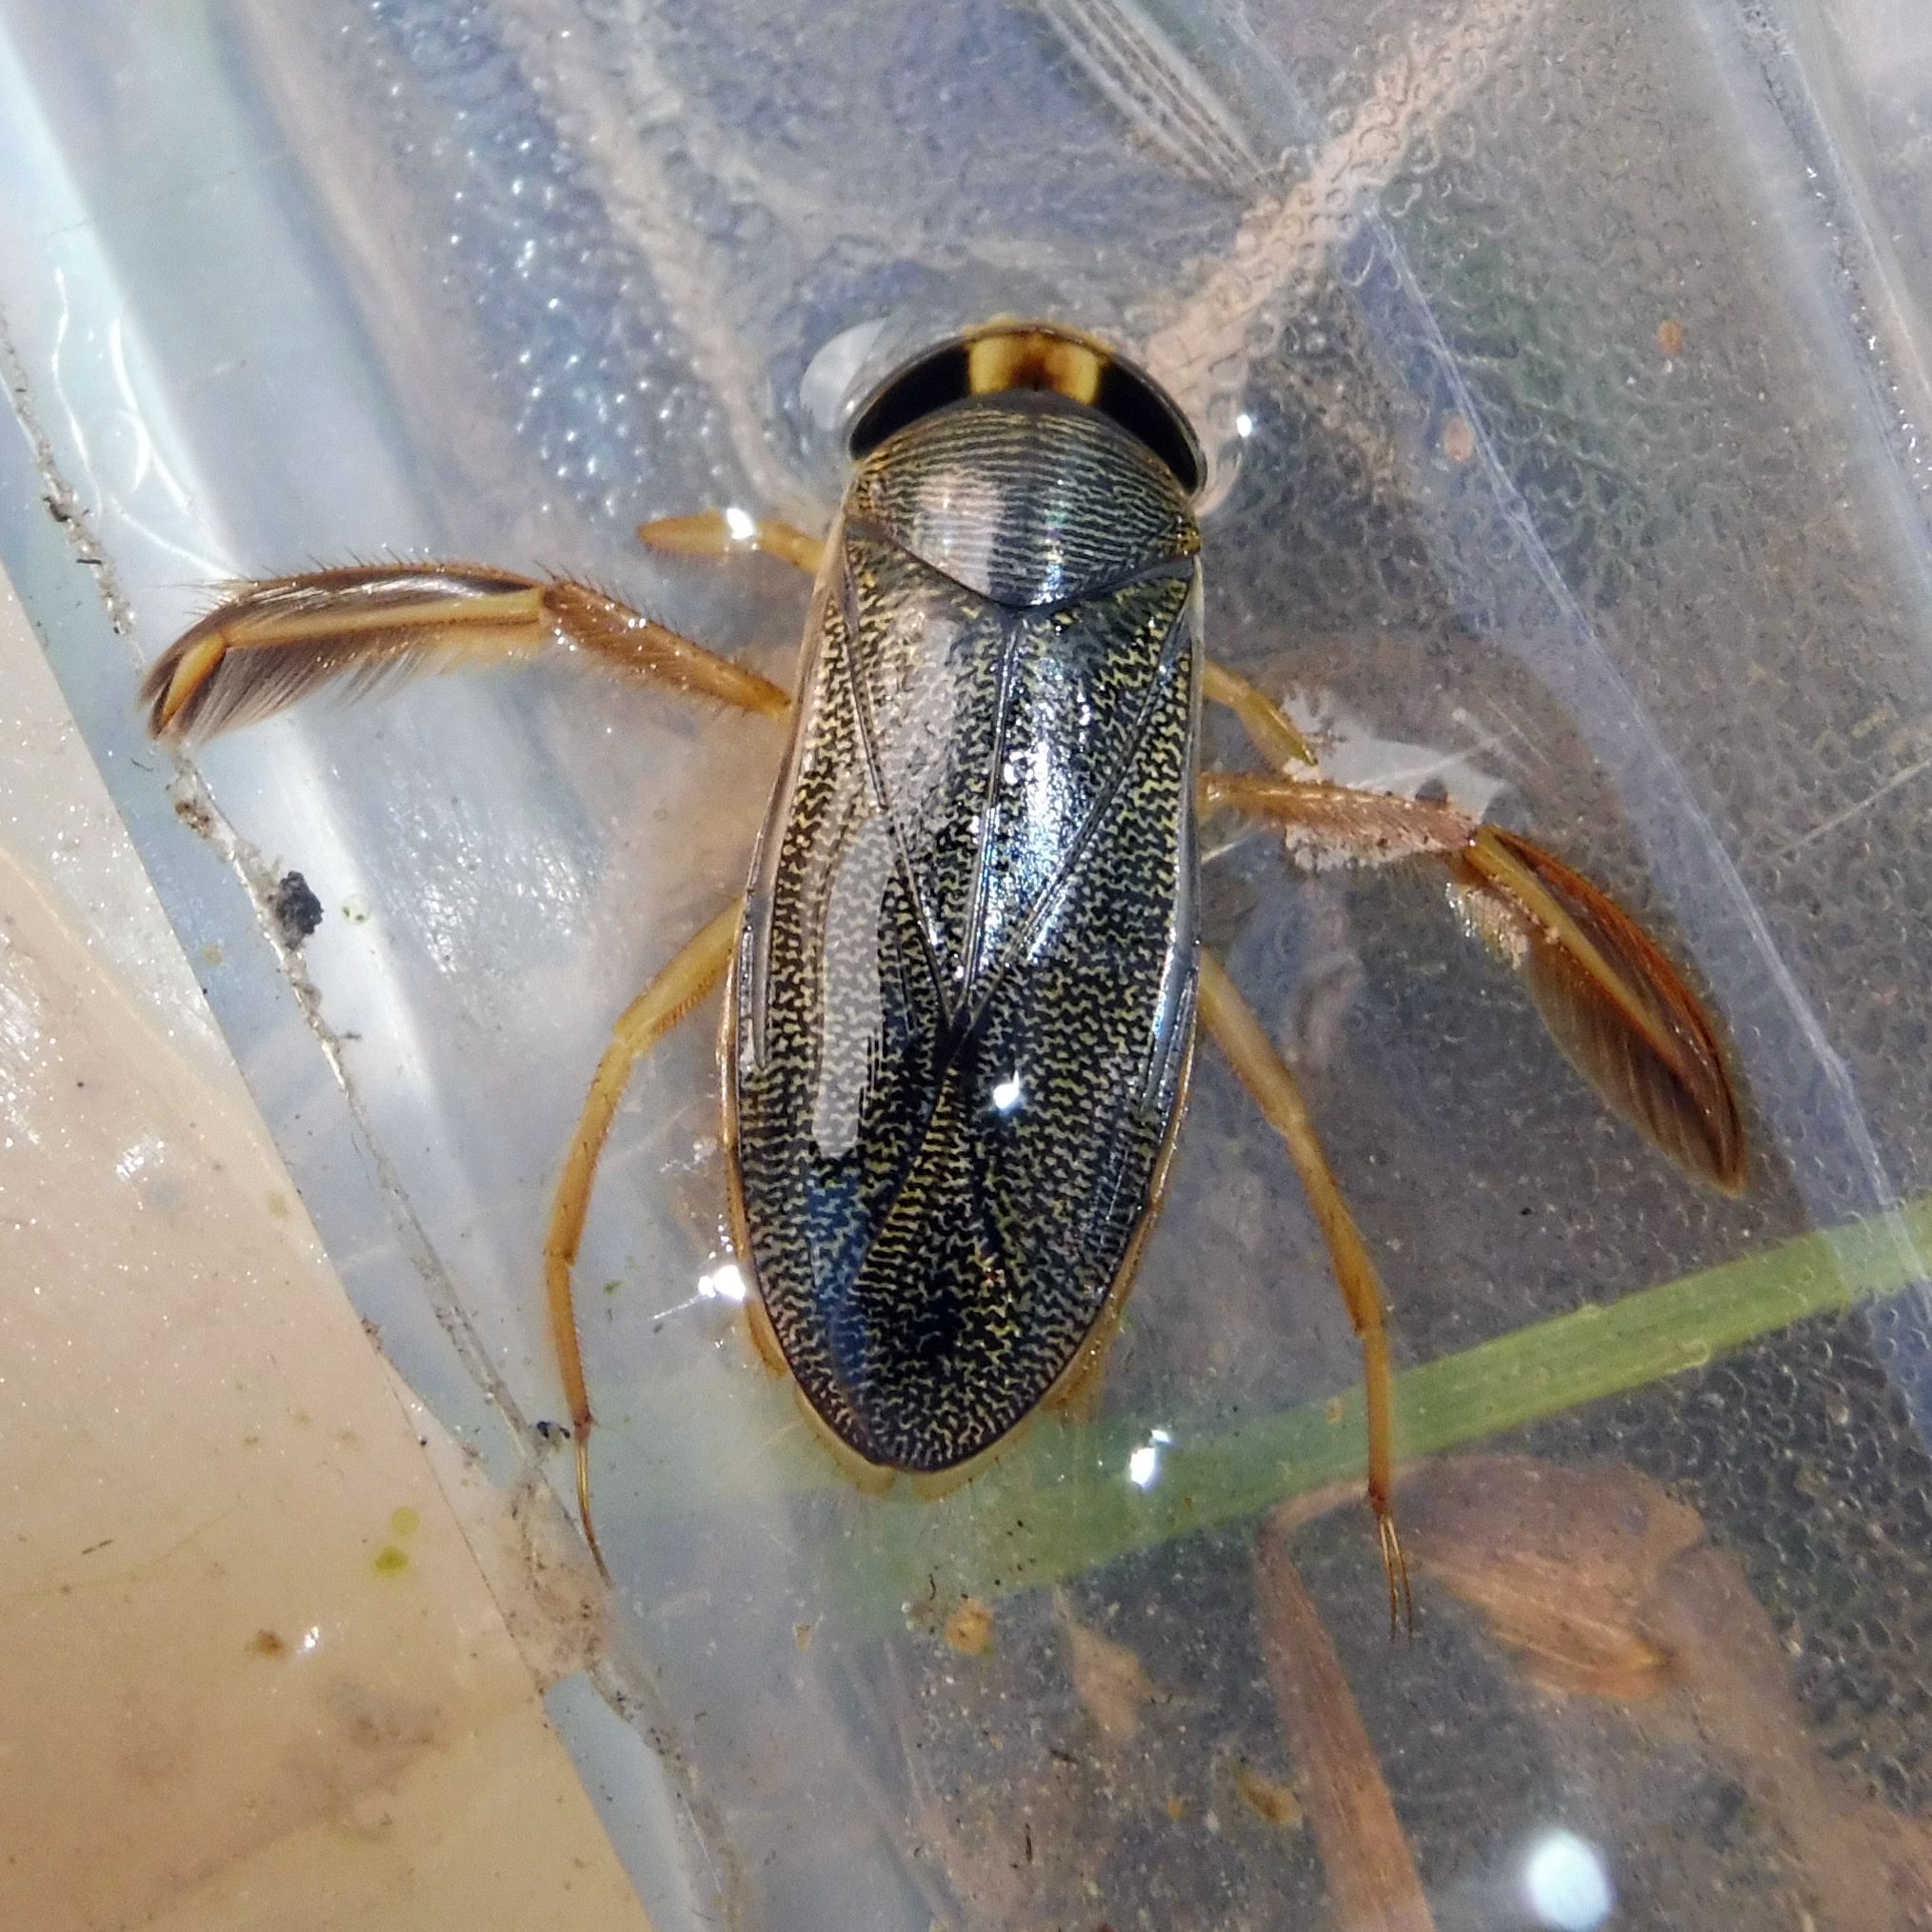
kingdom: Animalia
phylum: Arthropoda
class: Insecta
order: Hemiptera
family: Corixidae
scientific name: Corixidae
